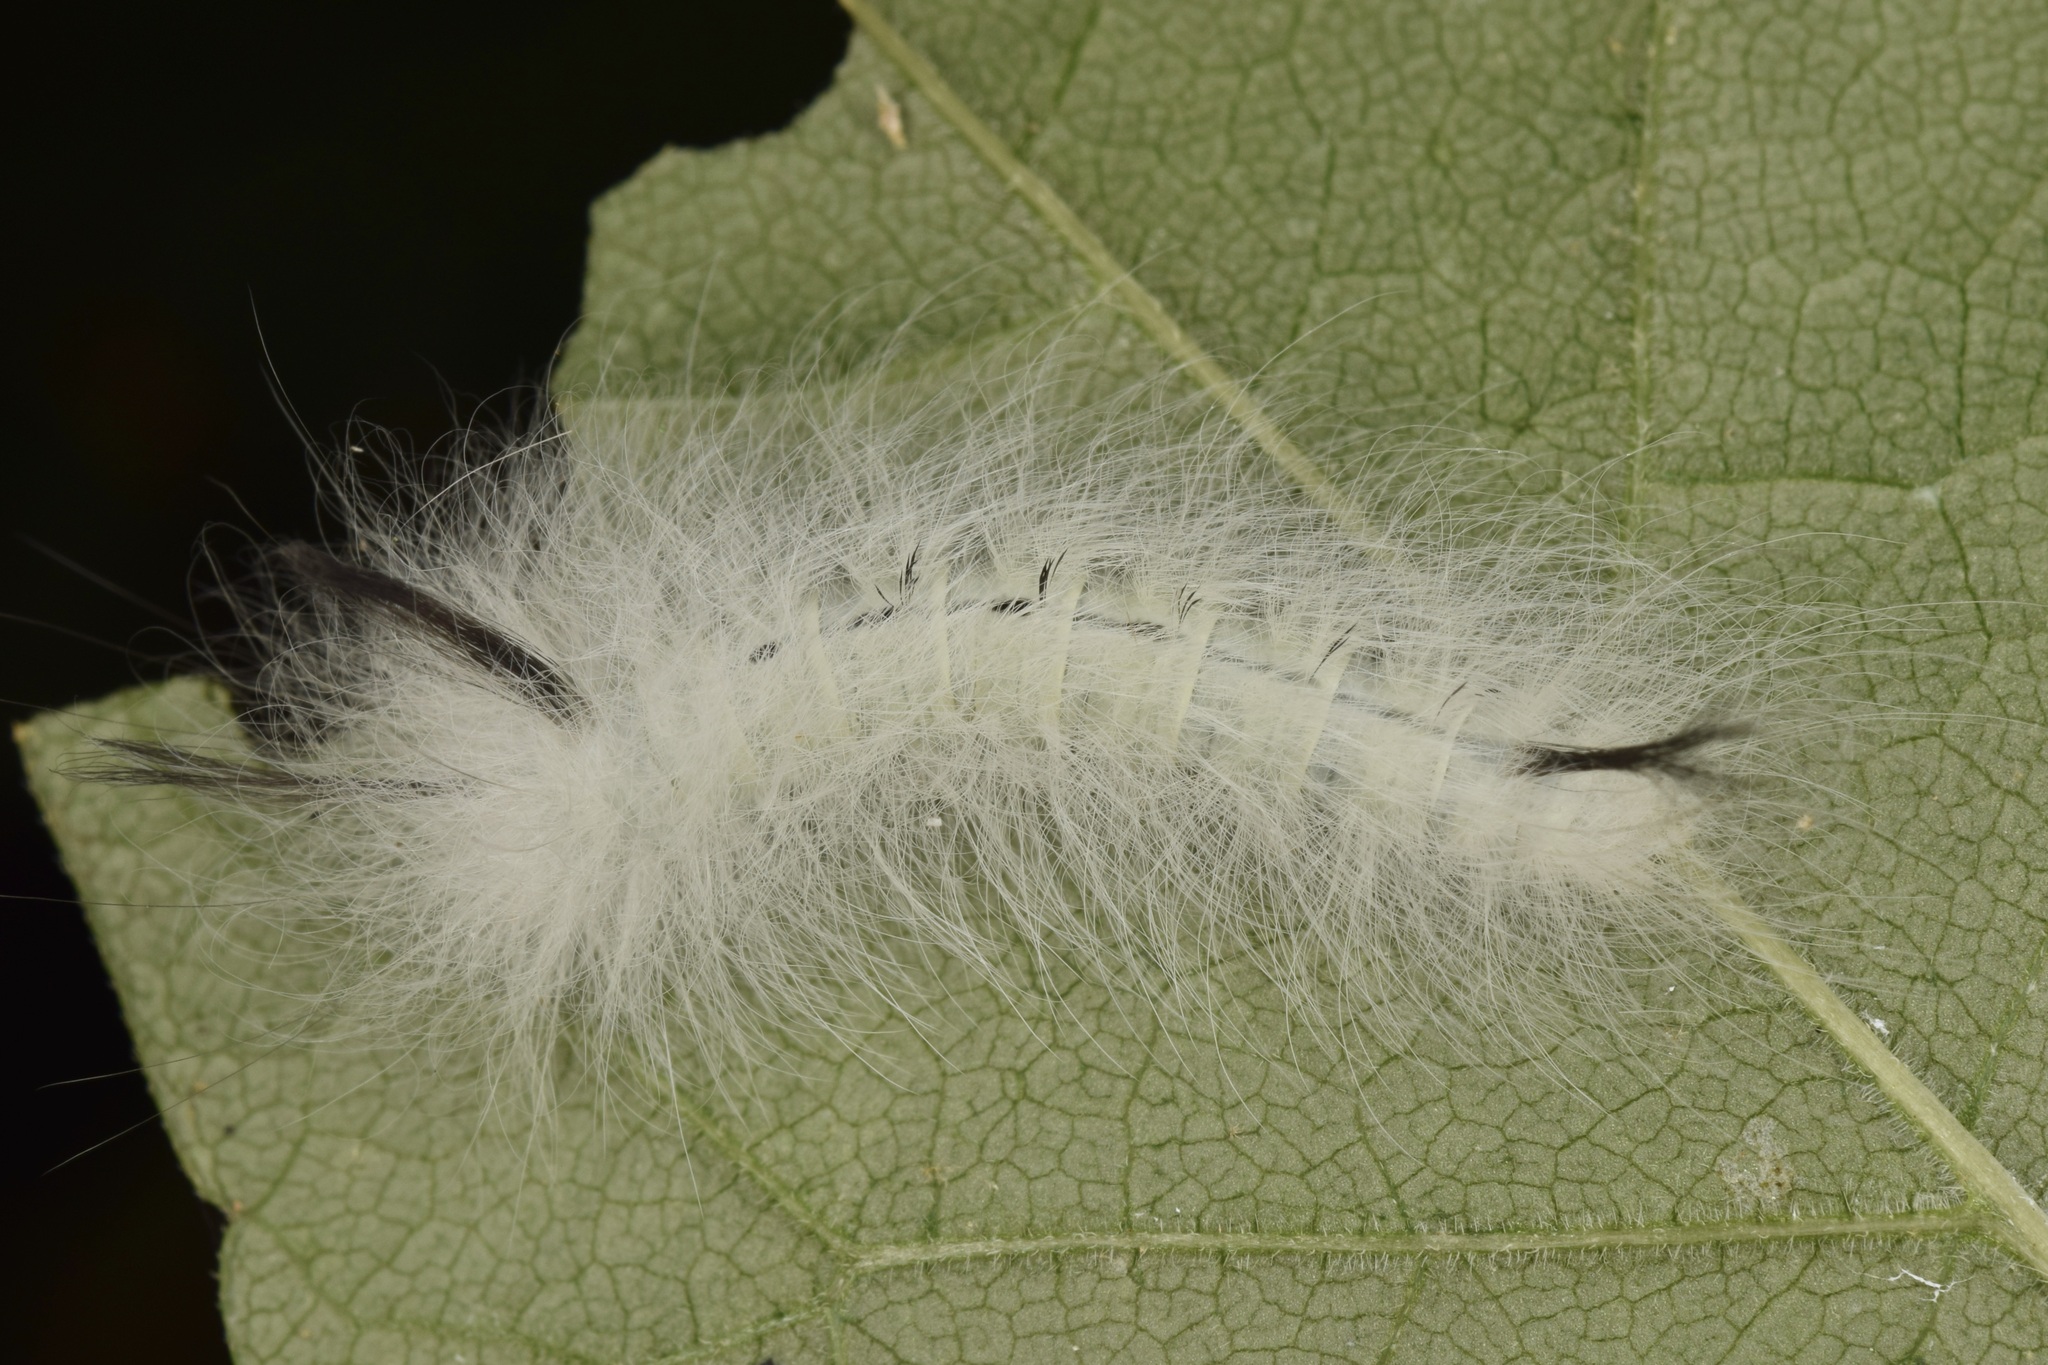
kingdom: Animalia
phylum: Arthropoda
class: Insecta
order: Lepidoptera
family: Apatelodidae
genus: Hygrochroa
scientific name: Hygrochroa Apatelodes torrefacta
